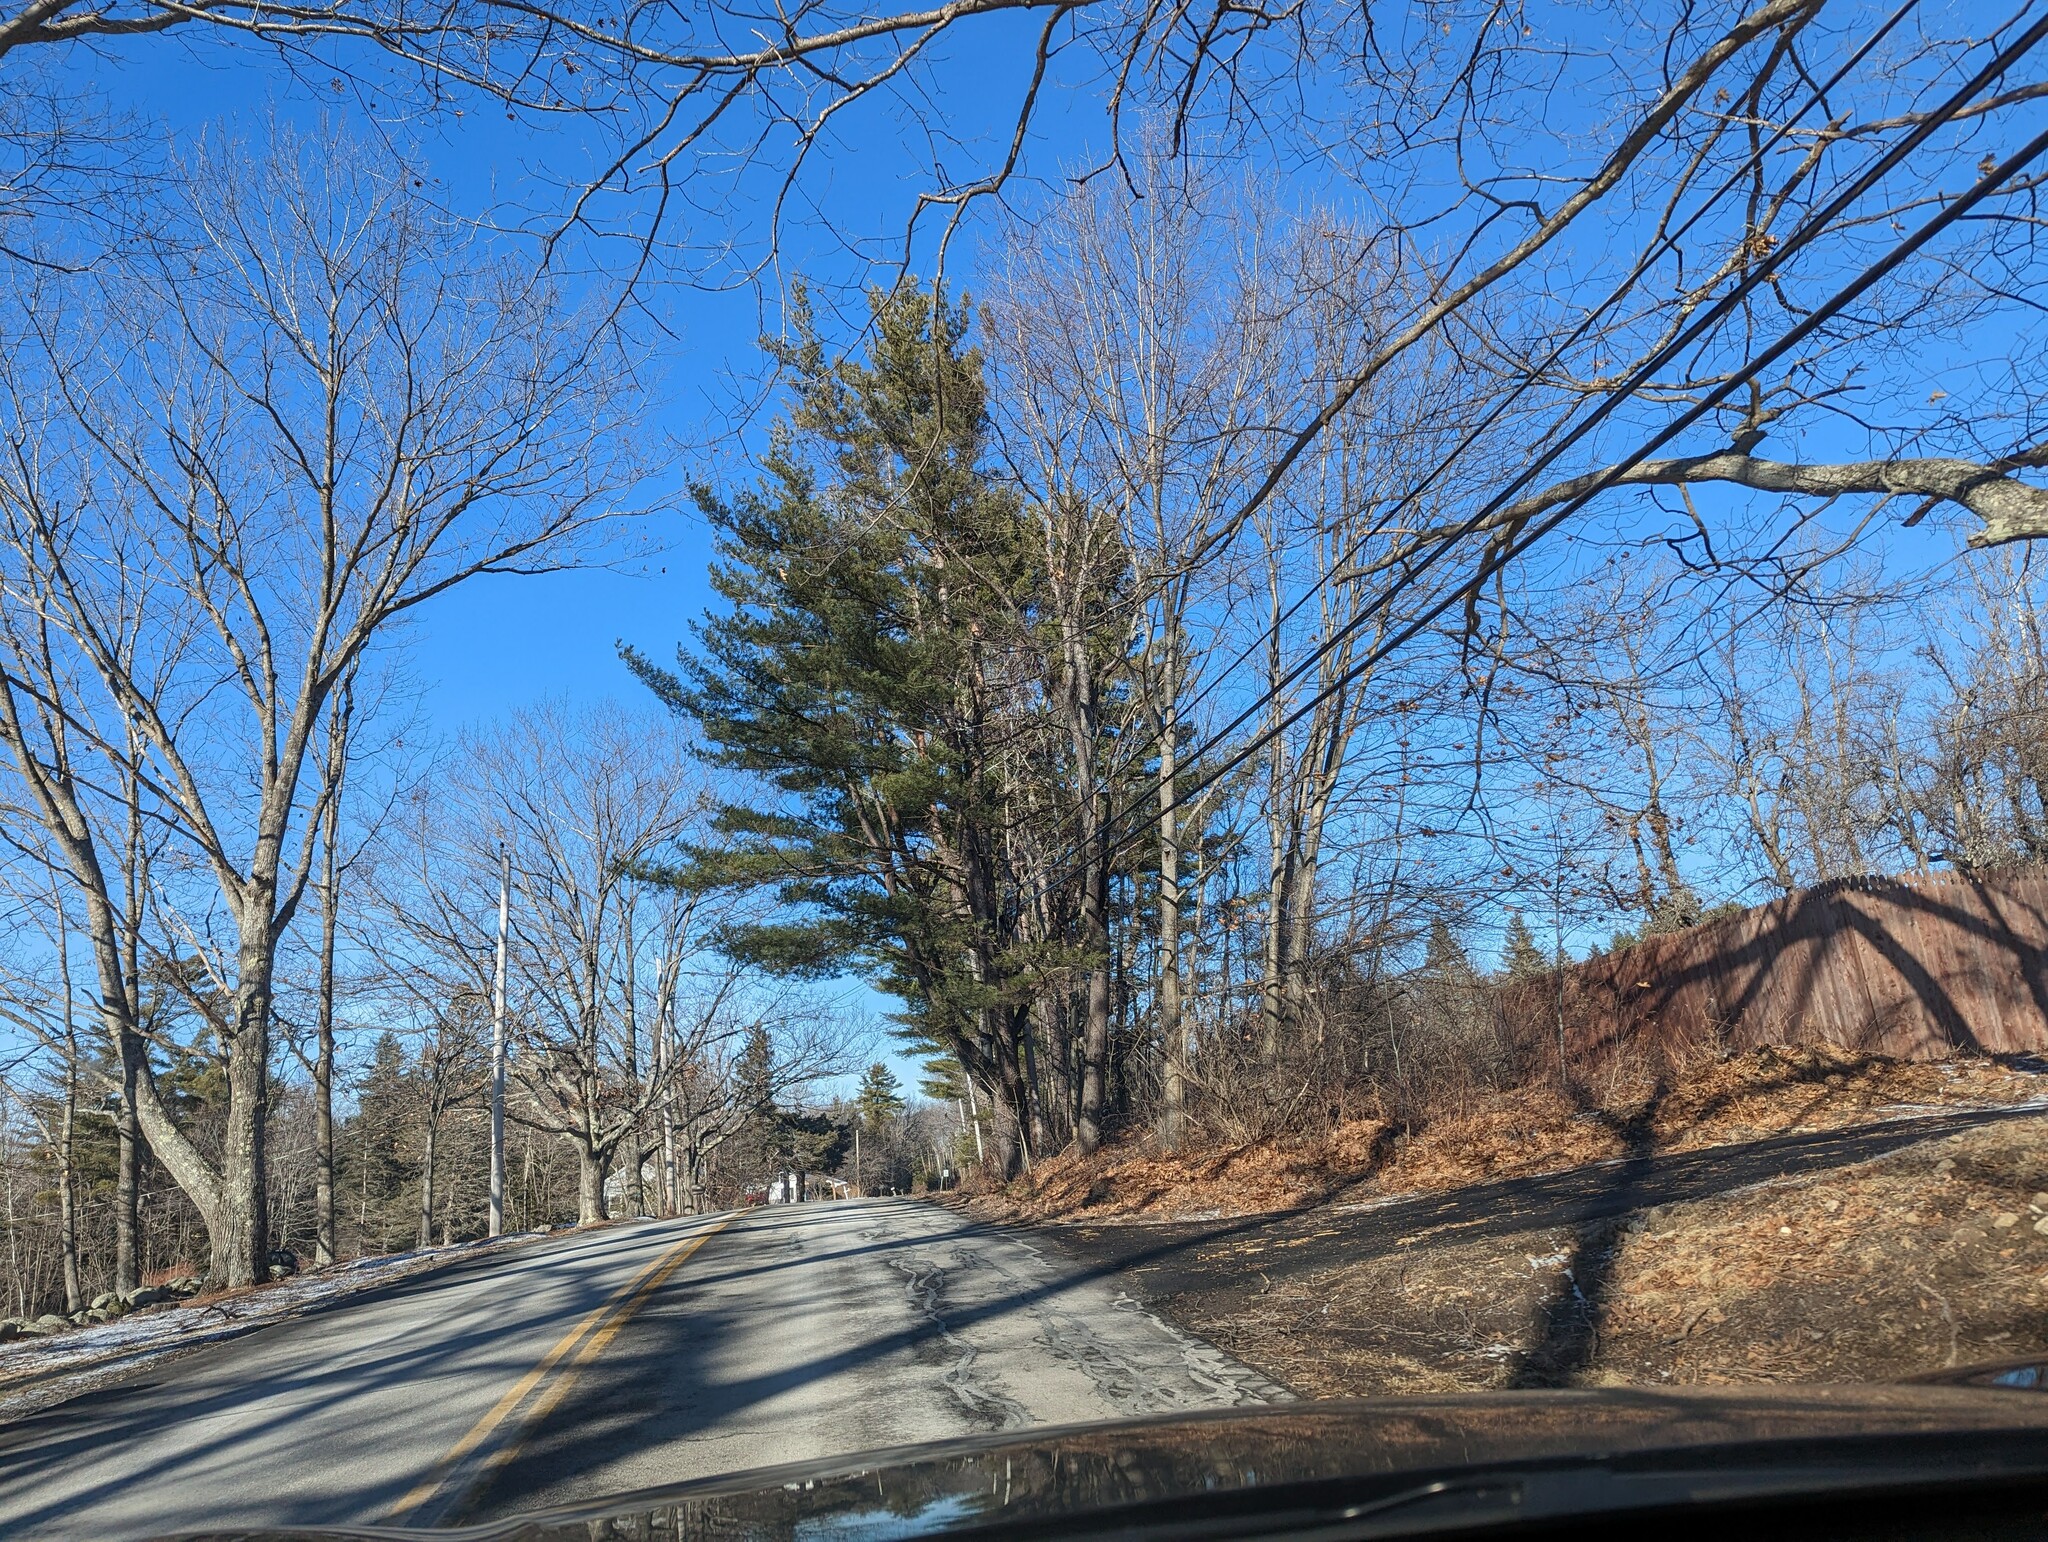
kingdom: Plantae
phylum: Tracheophyta
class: Pinopsida
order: Pinales
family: Pinaceae
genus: Pinus
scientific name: Pinus strobus
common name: Weymouth pine
